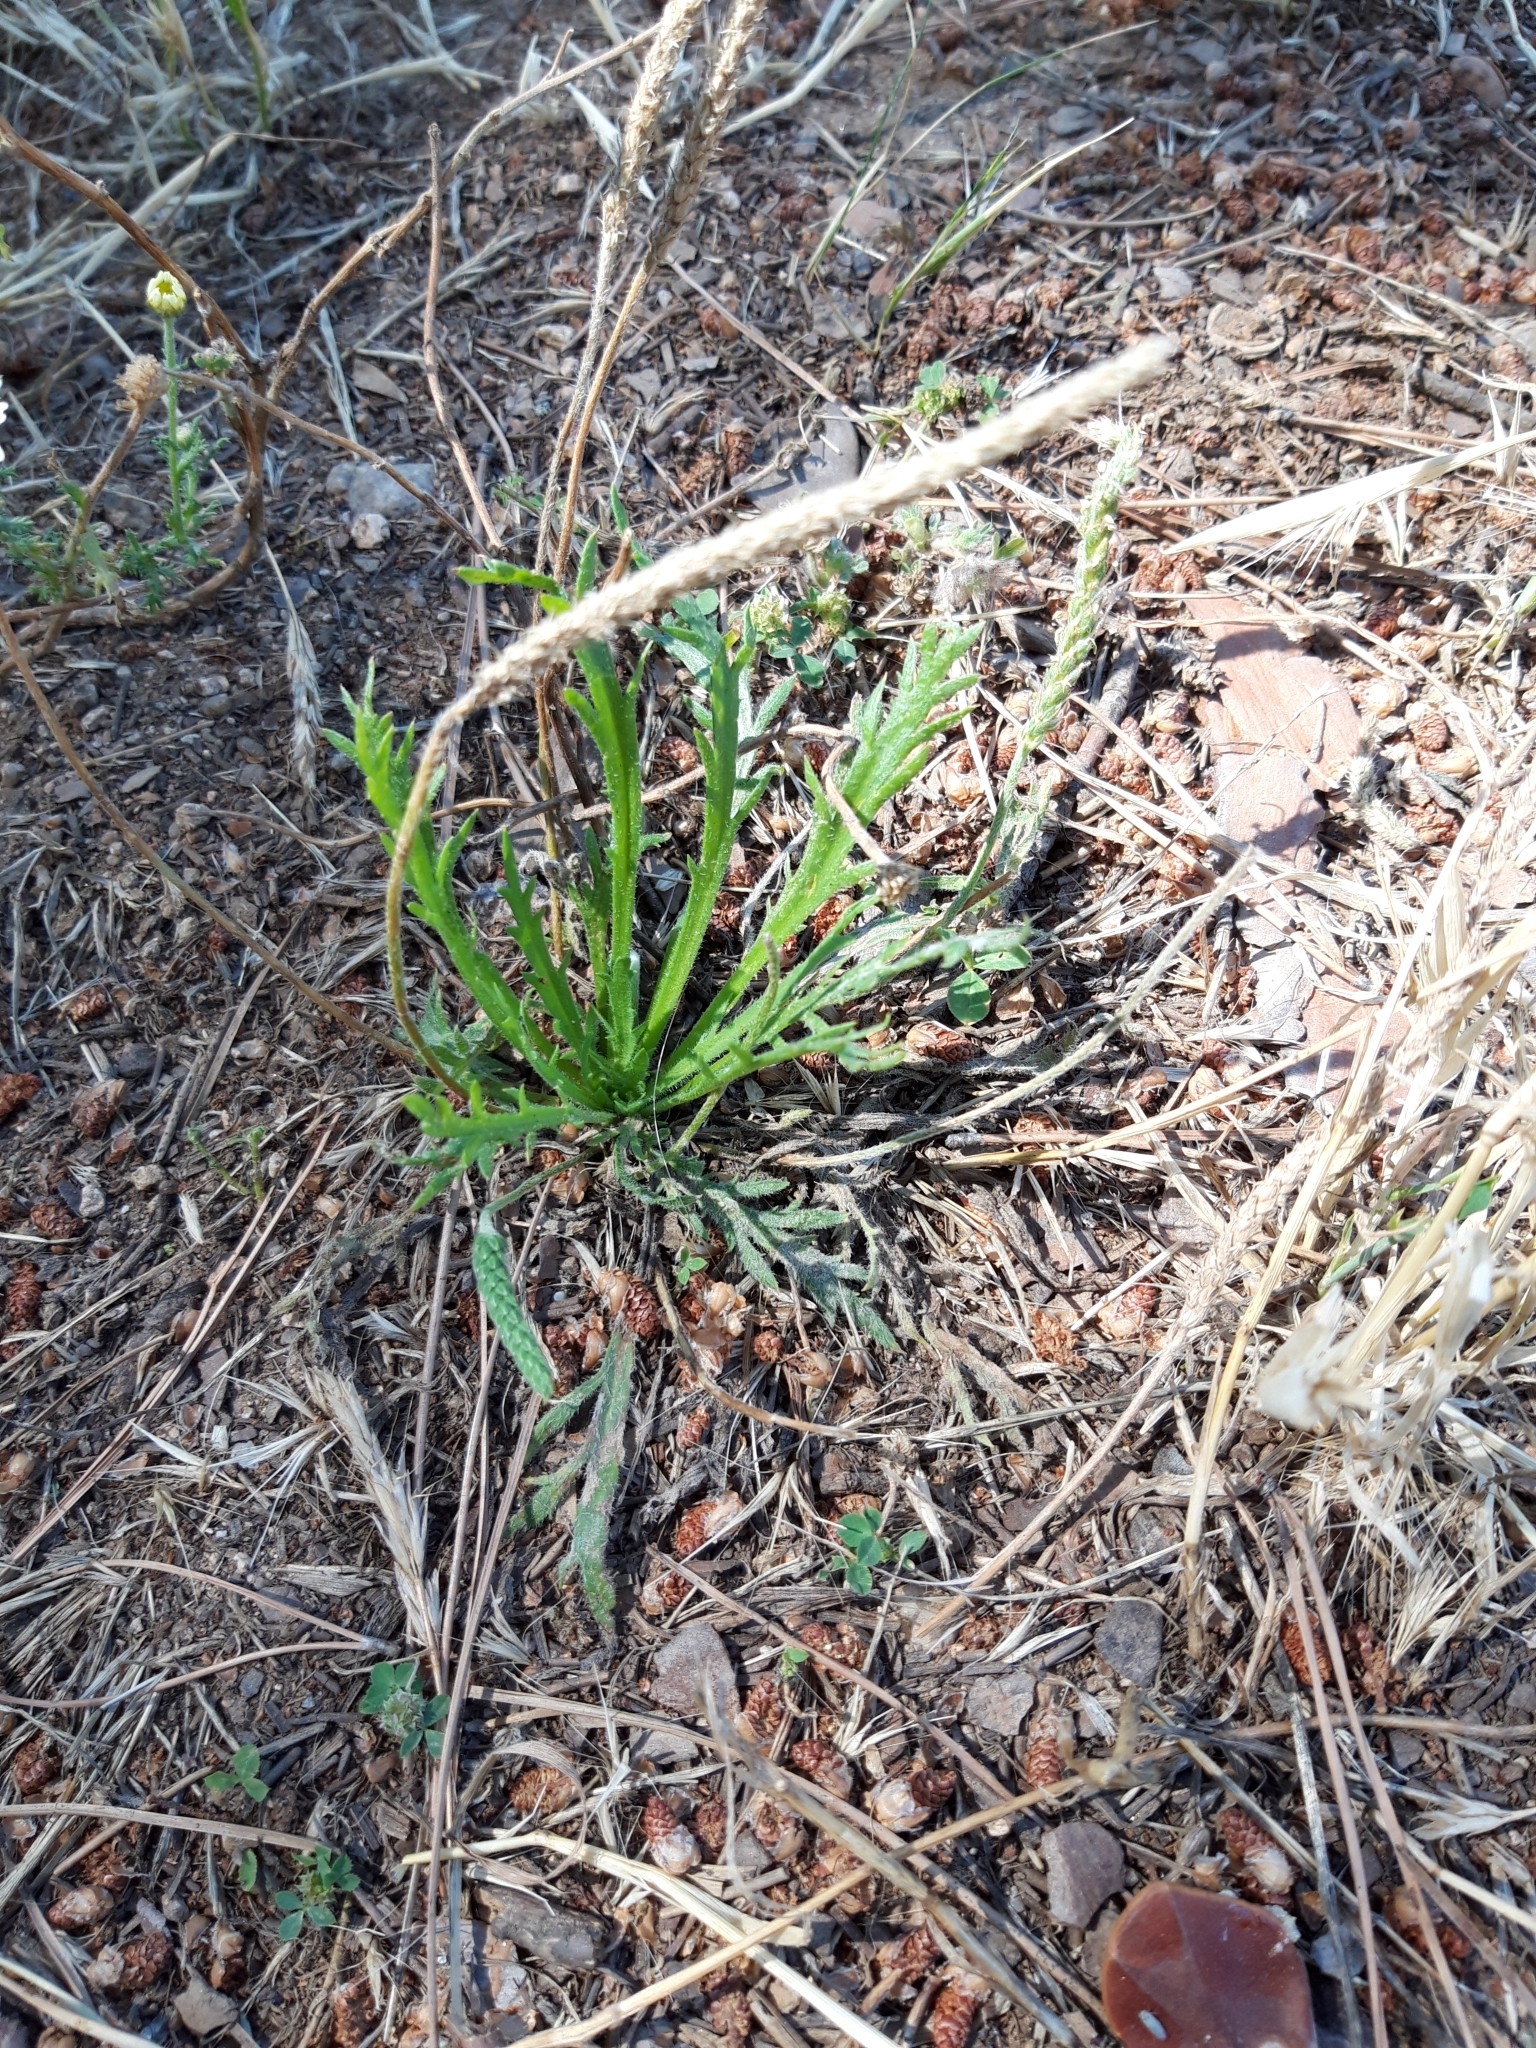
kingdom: Plantae
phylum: Tracheophyta
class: Magnoliopsida
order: Lamiales
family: Plantaginaceae
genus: Plantago
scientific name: Plantago coronopus
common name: Buck's-horn plantain
